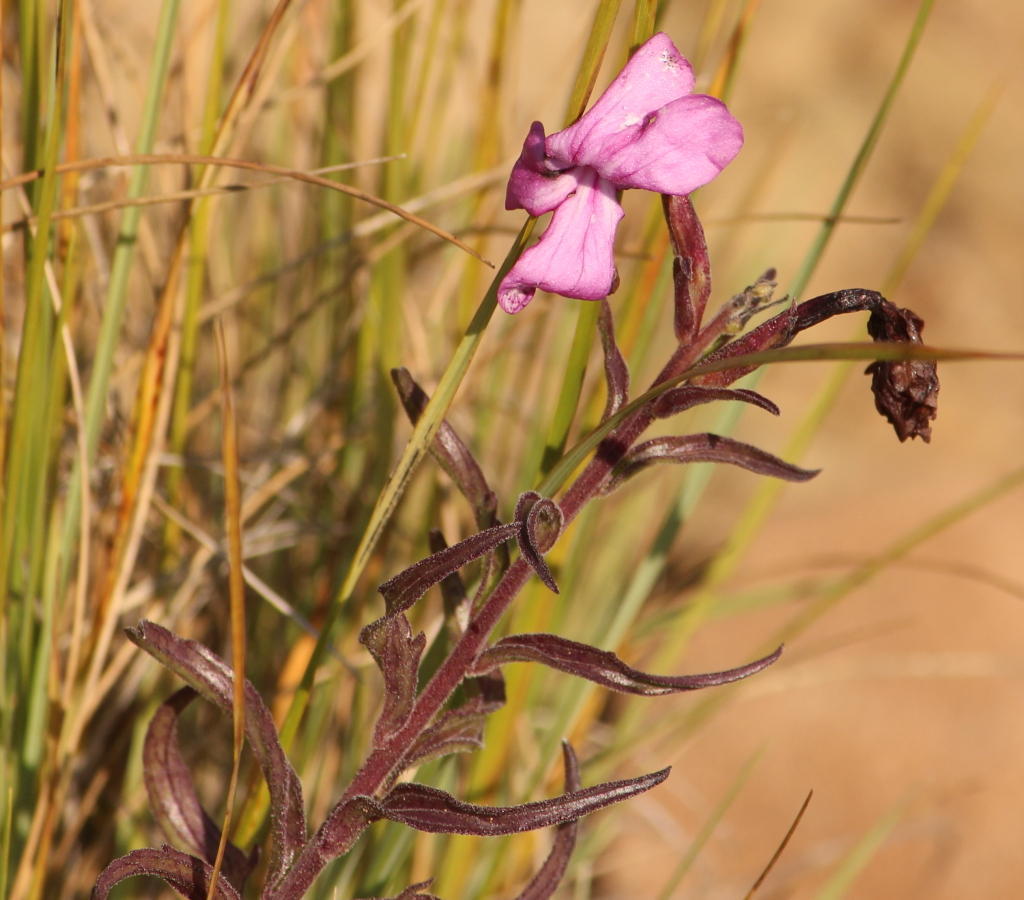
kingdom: Plantae
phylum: Tracheophyta
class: Magnoliopsida
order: Lamiales
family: Orobanchaceae
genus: Cycnium
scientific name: Cycnium racemosum
